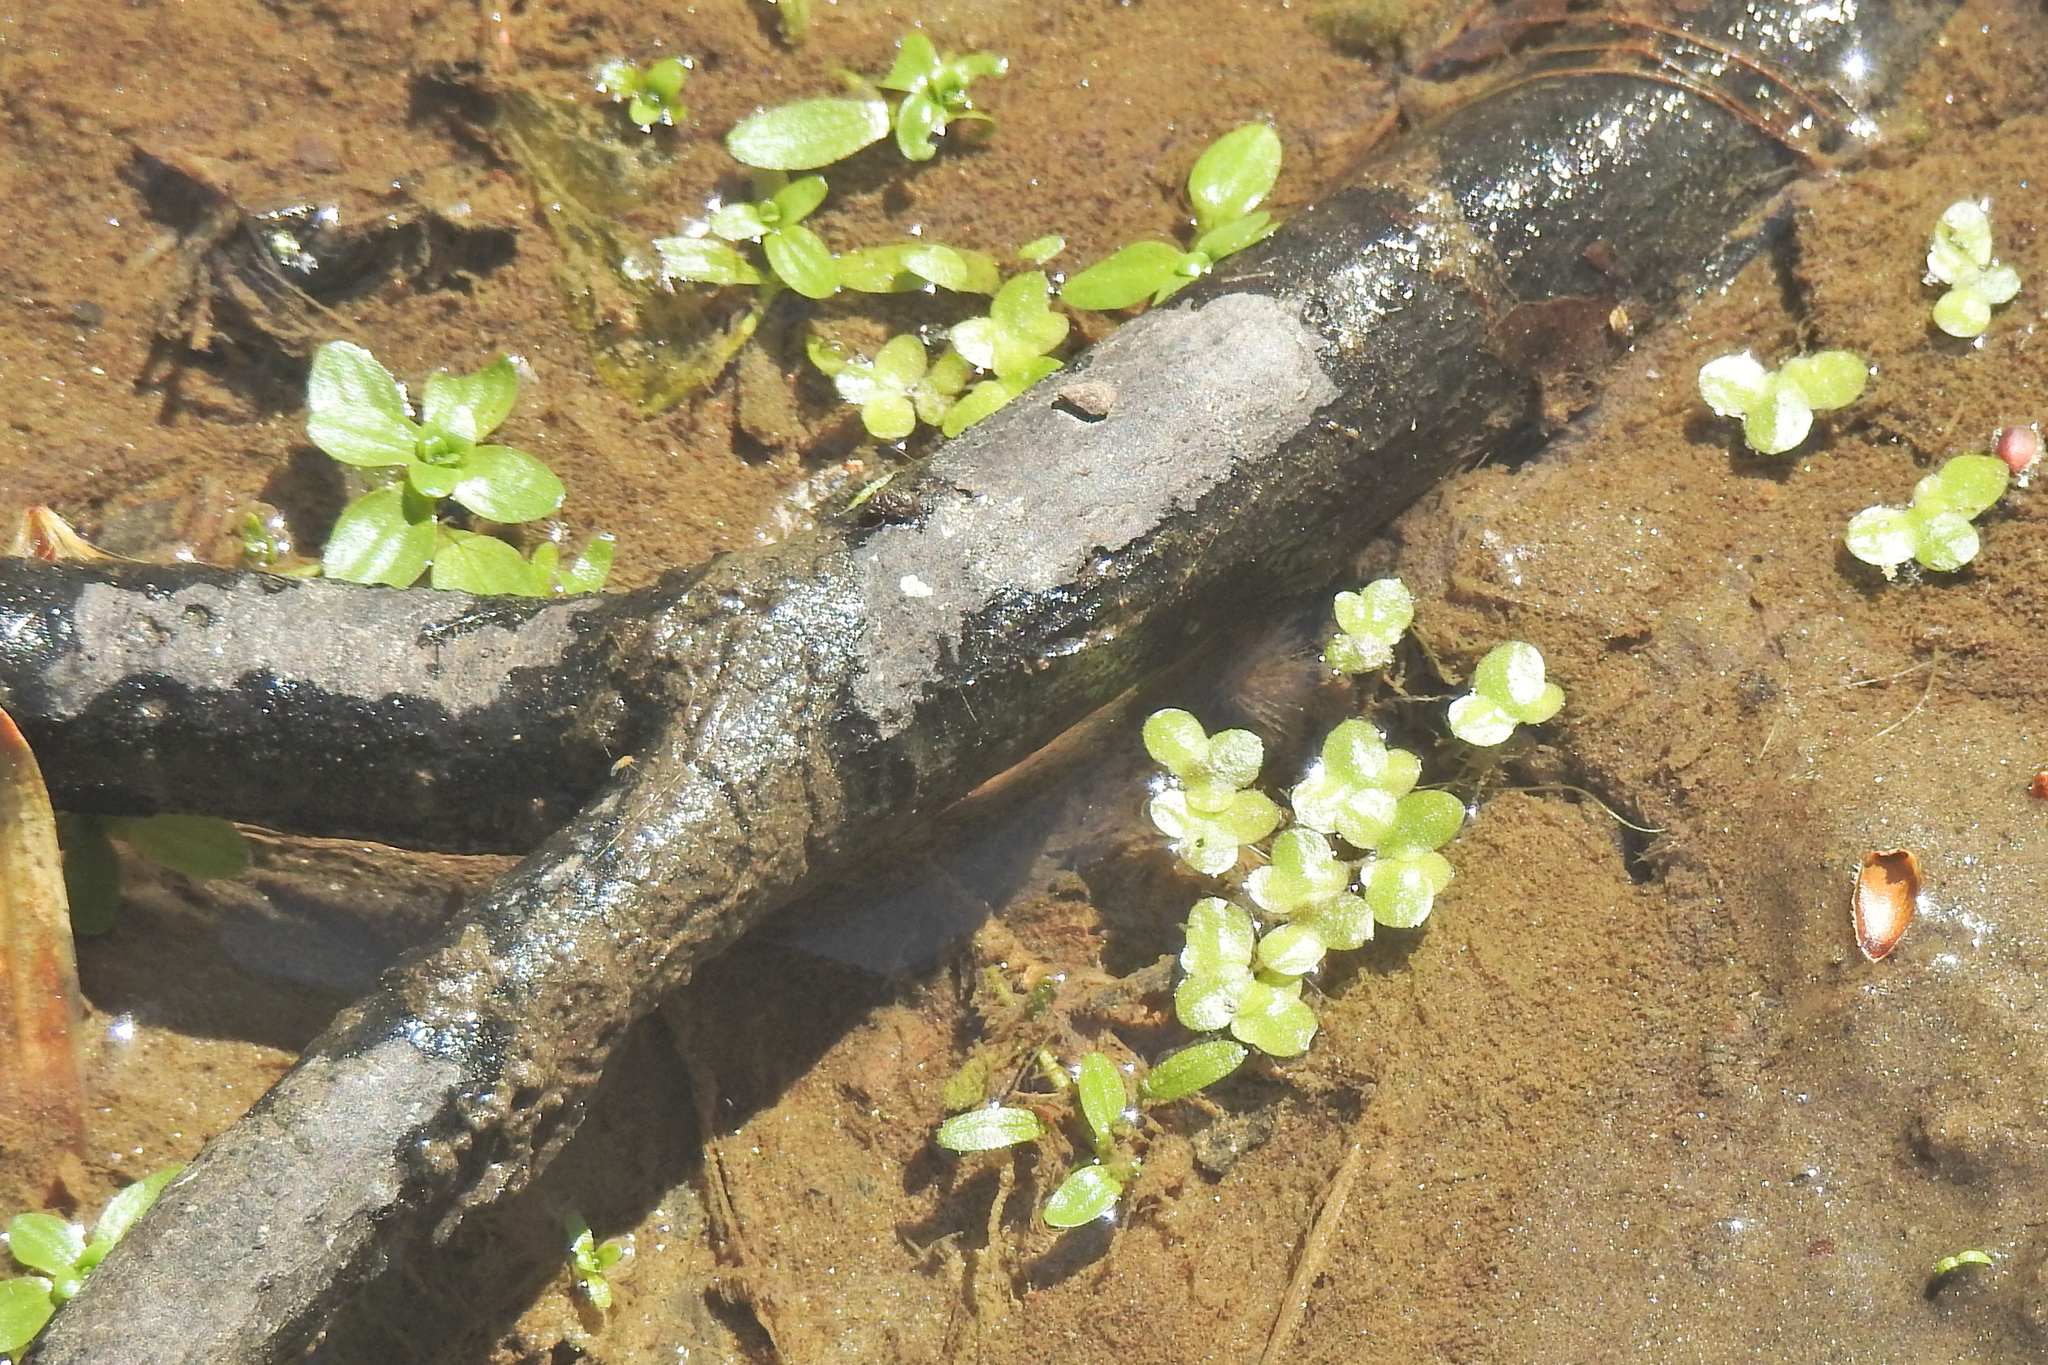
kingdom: Plantae
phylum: Tracheophyta
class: Liliopsida
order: Alismatales
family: Araceae
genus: Lemna
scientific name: Lemna minor
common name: Common duckweed
